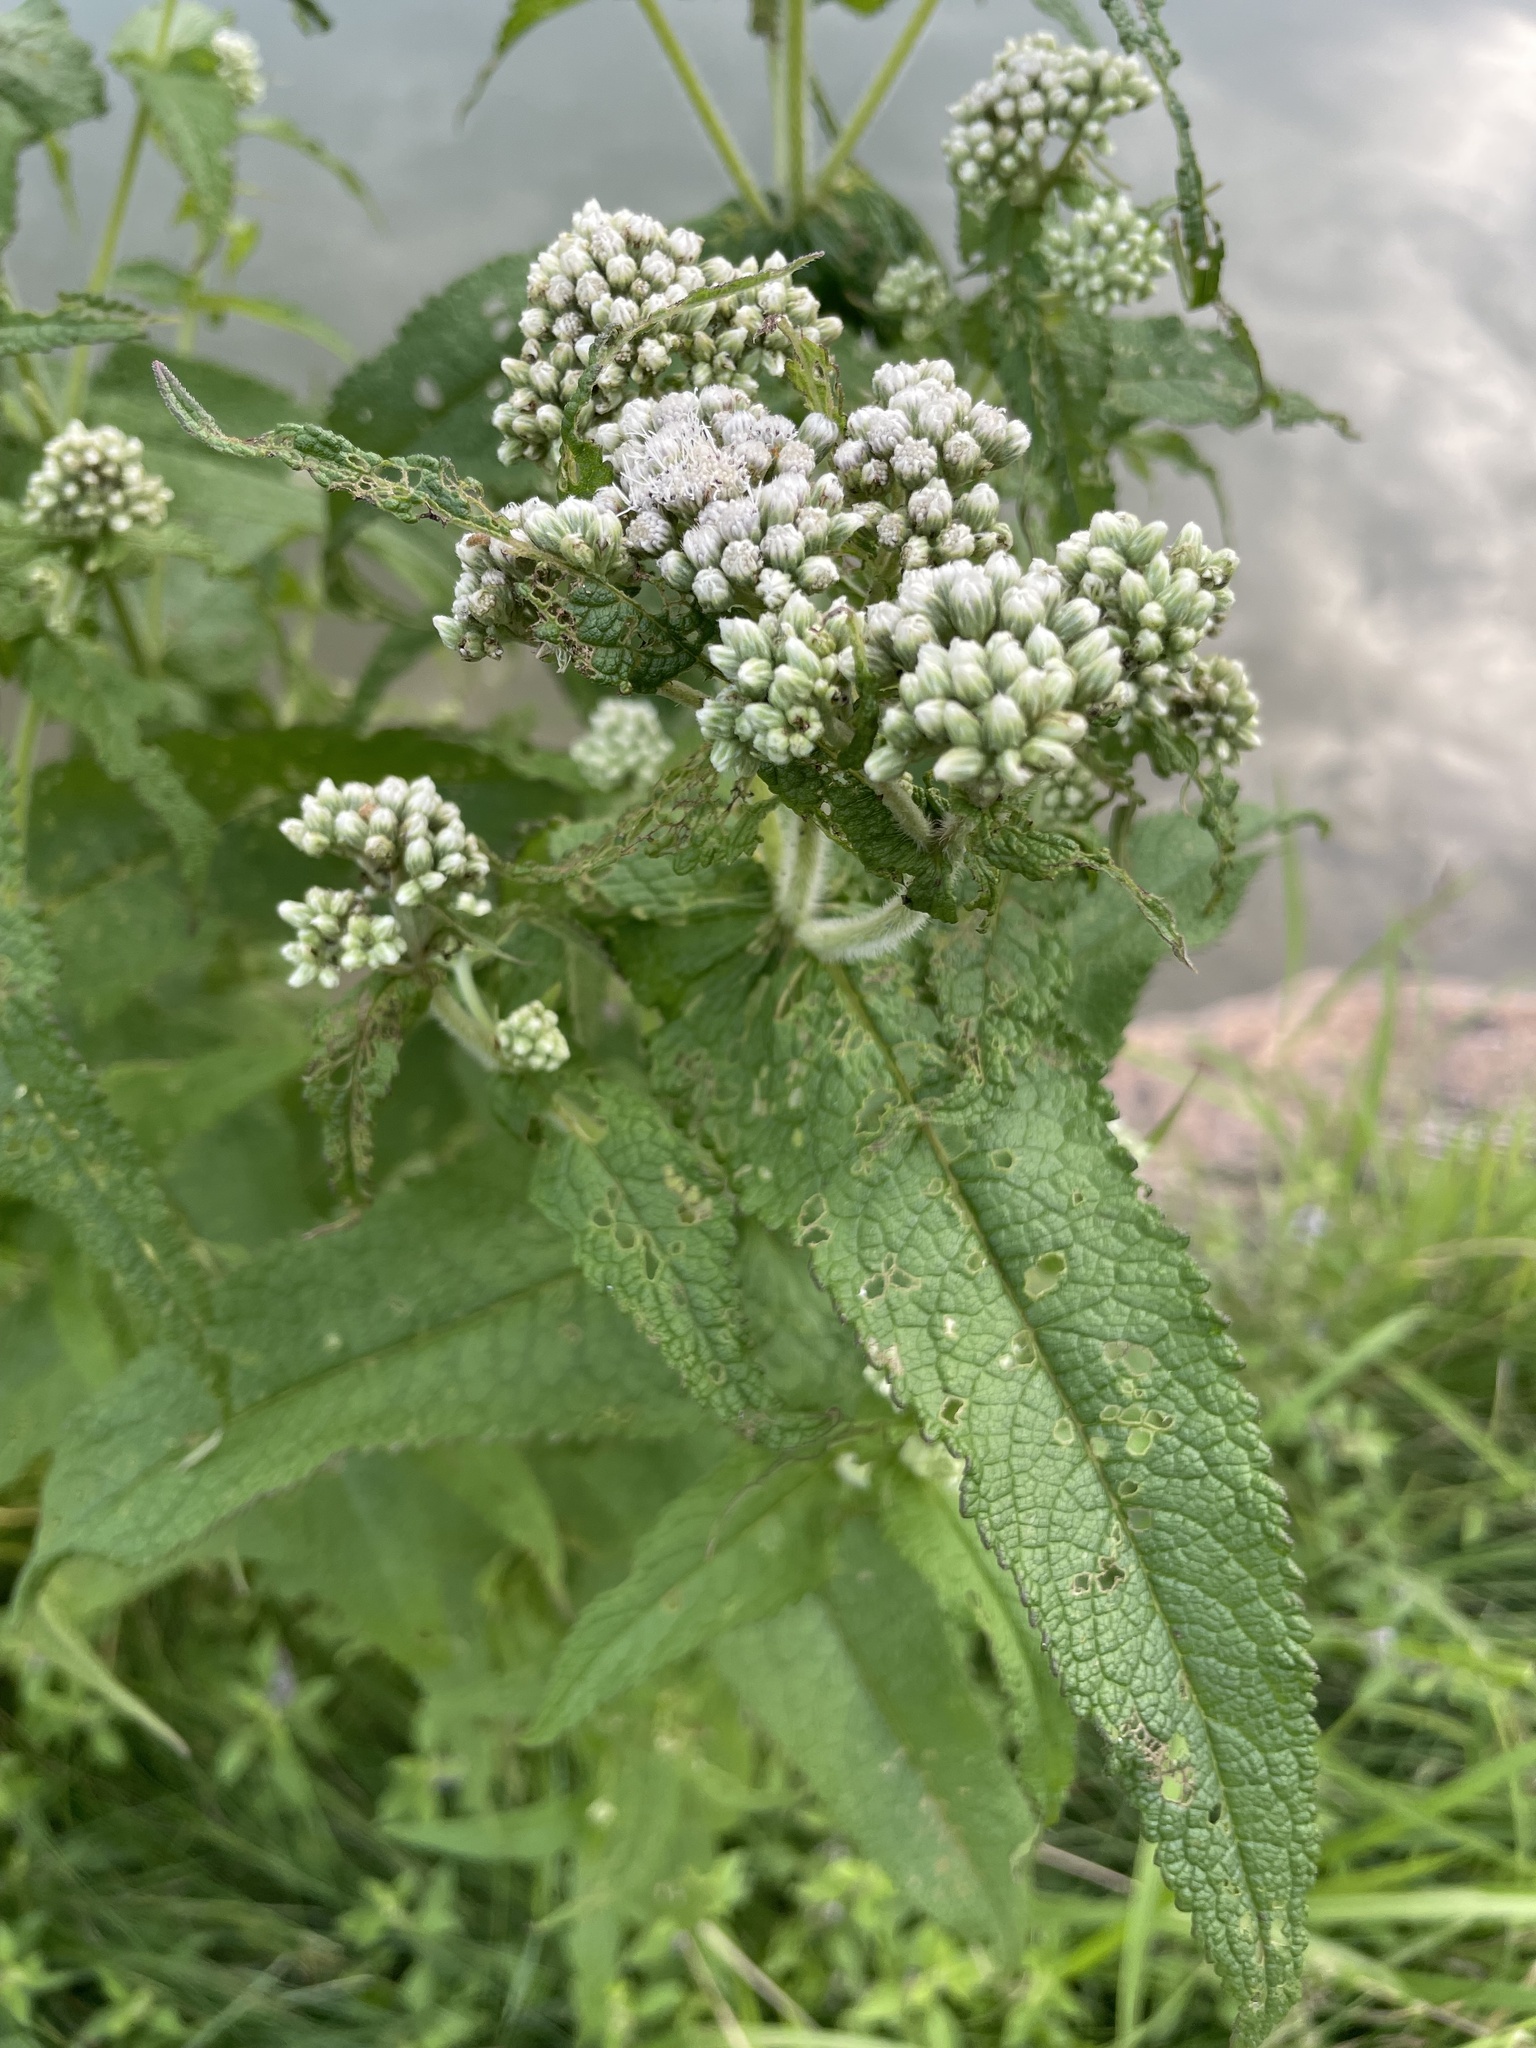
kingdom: Plantae
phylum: Tracheophyta
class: Magnoliopsida
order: Asterales
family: Asteraceae
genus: Eupatorium
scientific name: Eupatorium perfoliatum
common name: Boneset
